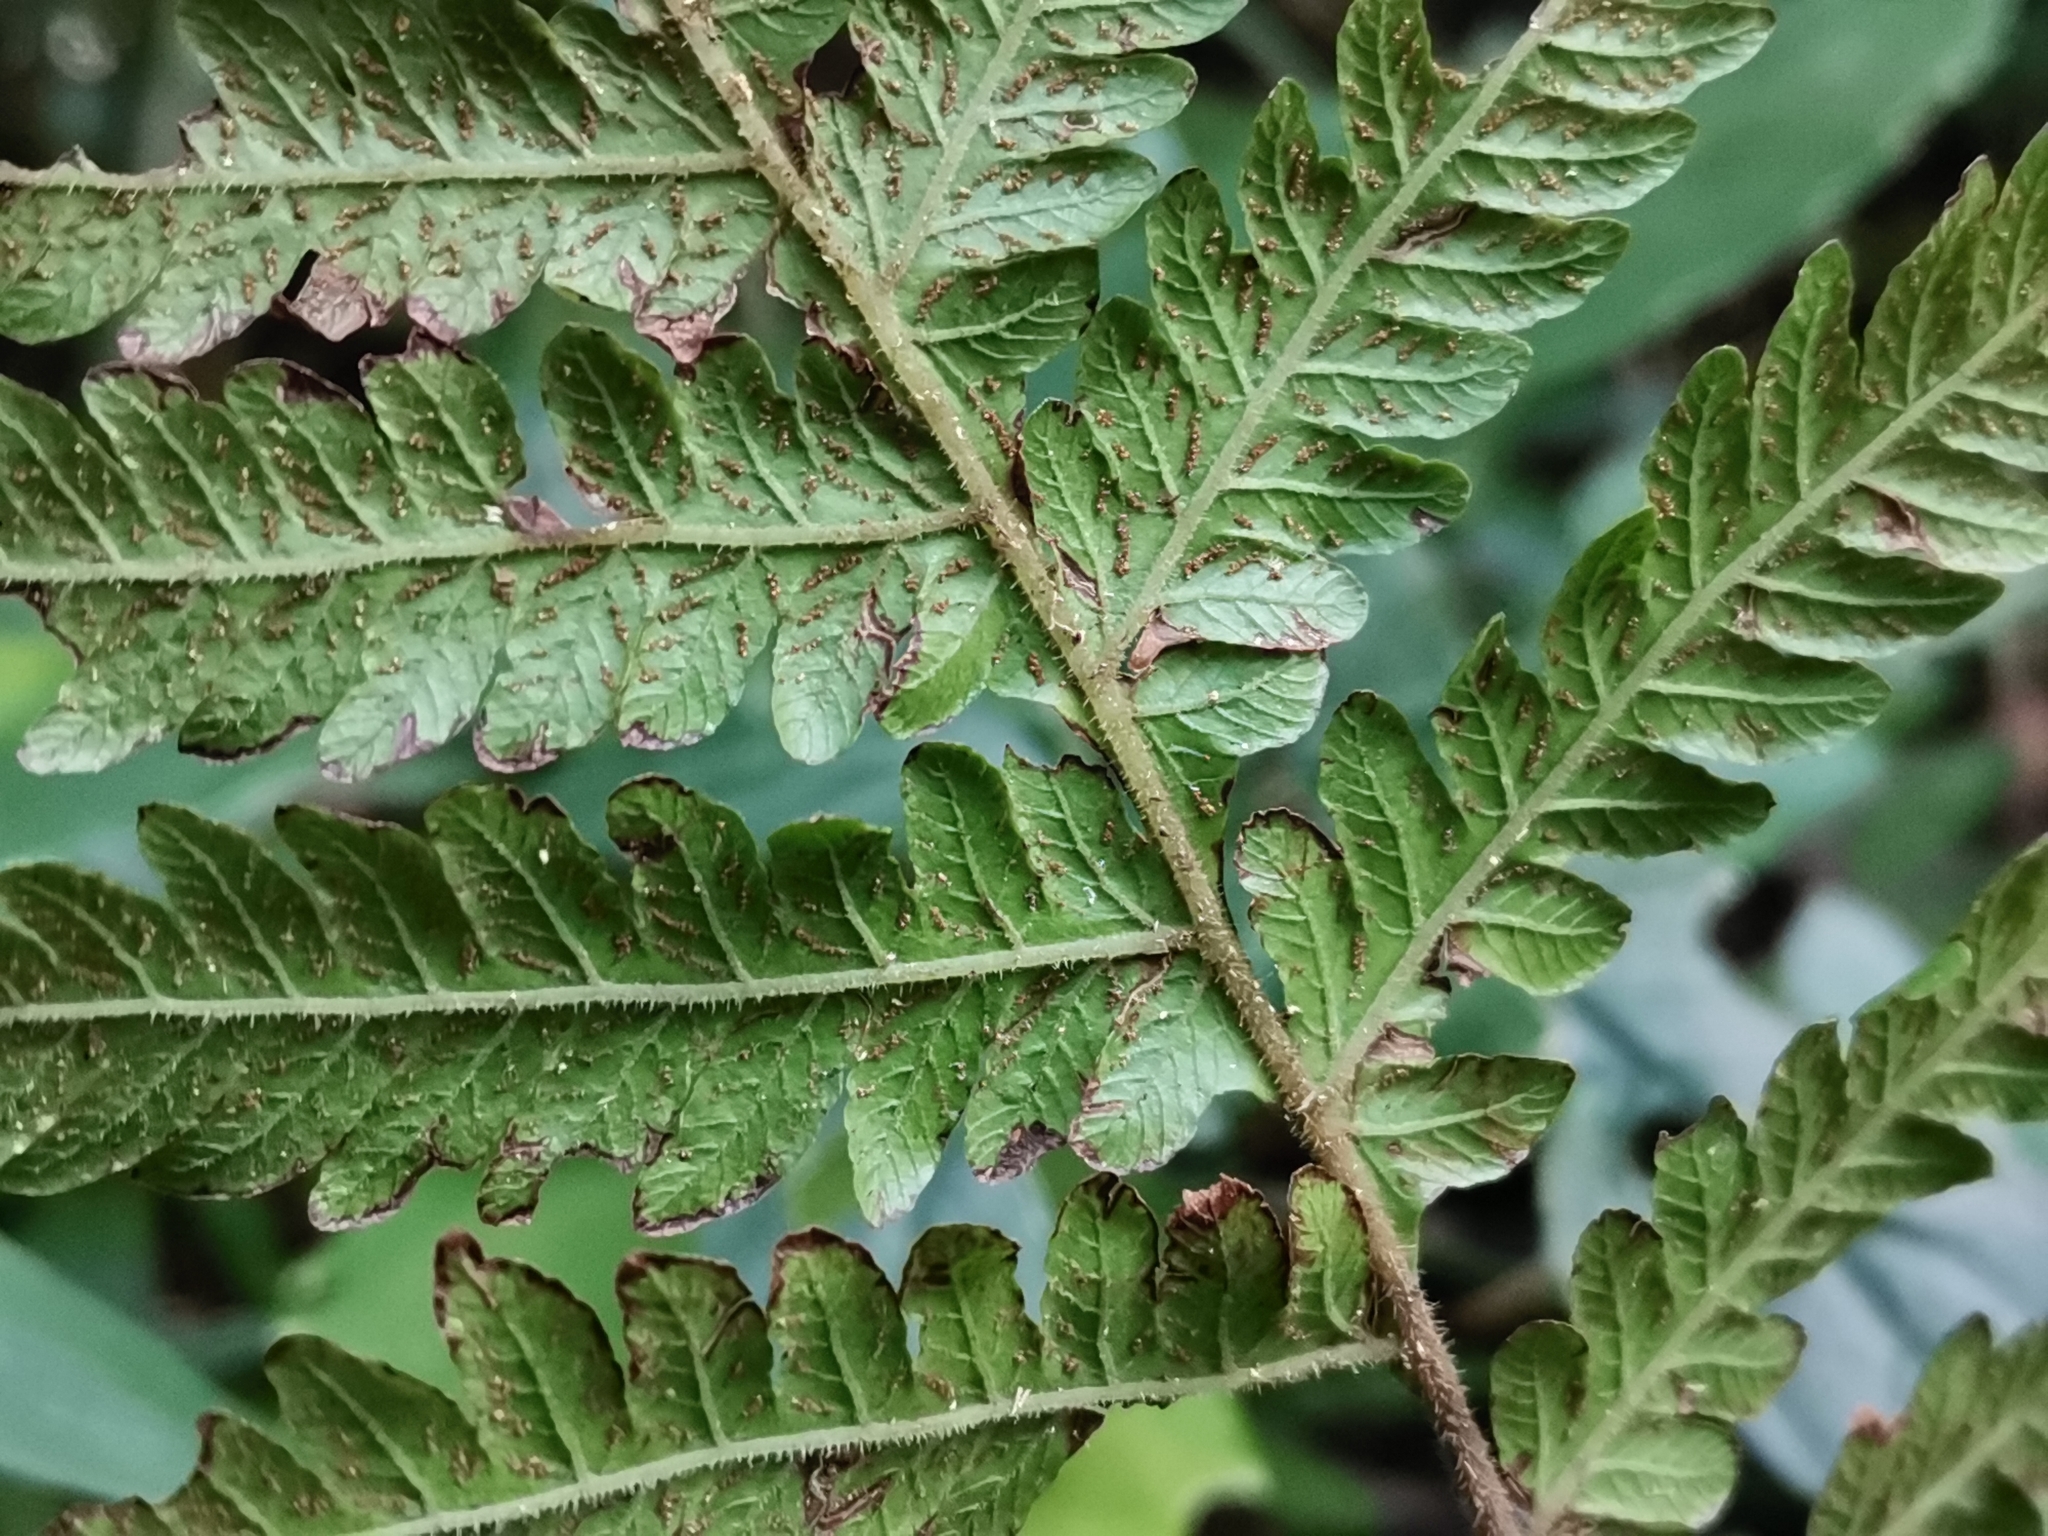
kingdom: Plantae
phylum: Tracheophyta
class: Polypodiopsida
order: Polypodiales
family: Thelypteridaceae
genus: Leptogramma
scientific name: Leptogramma mollissima
